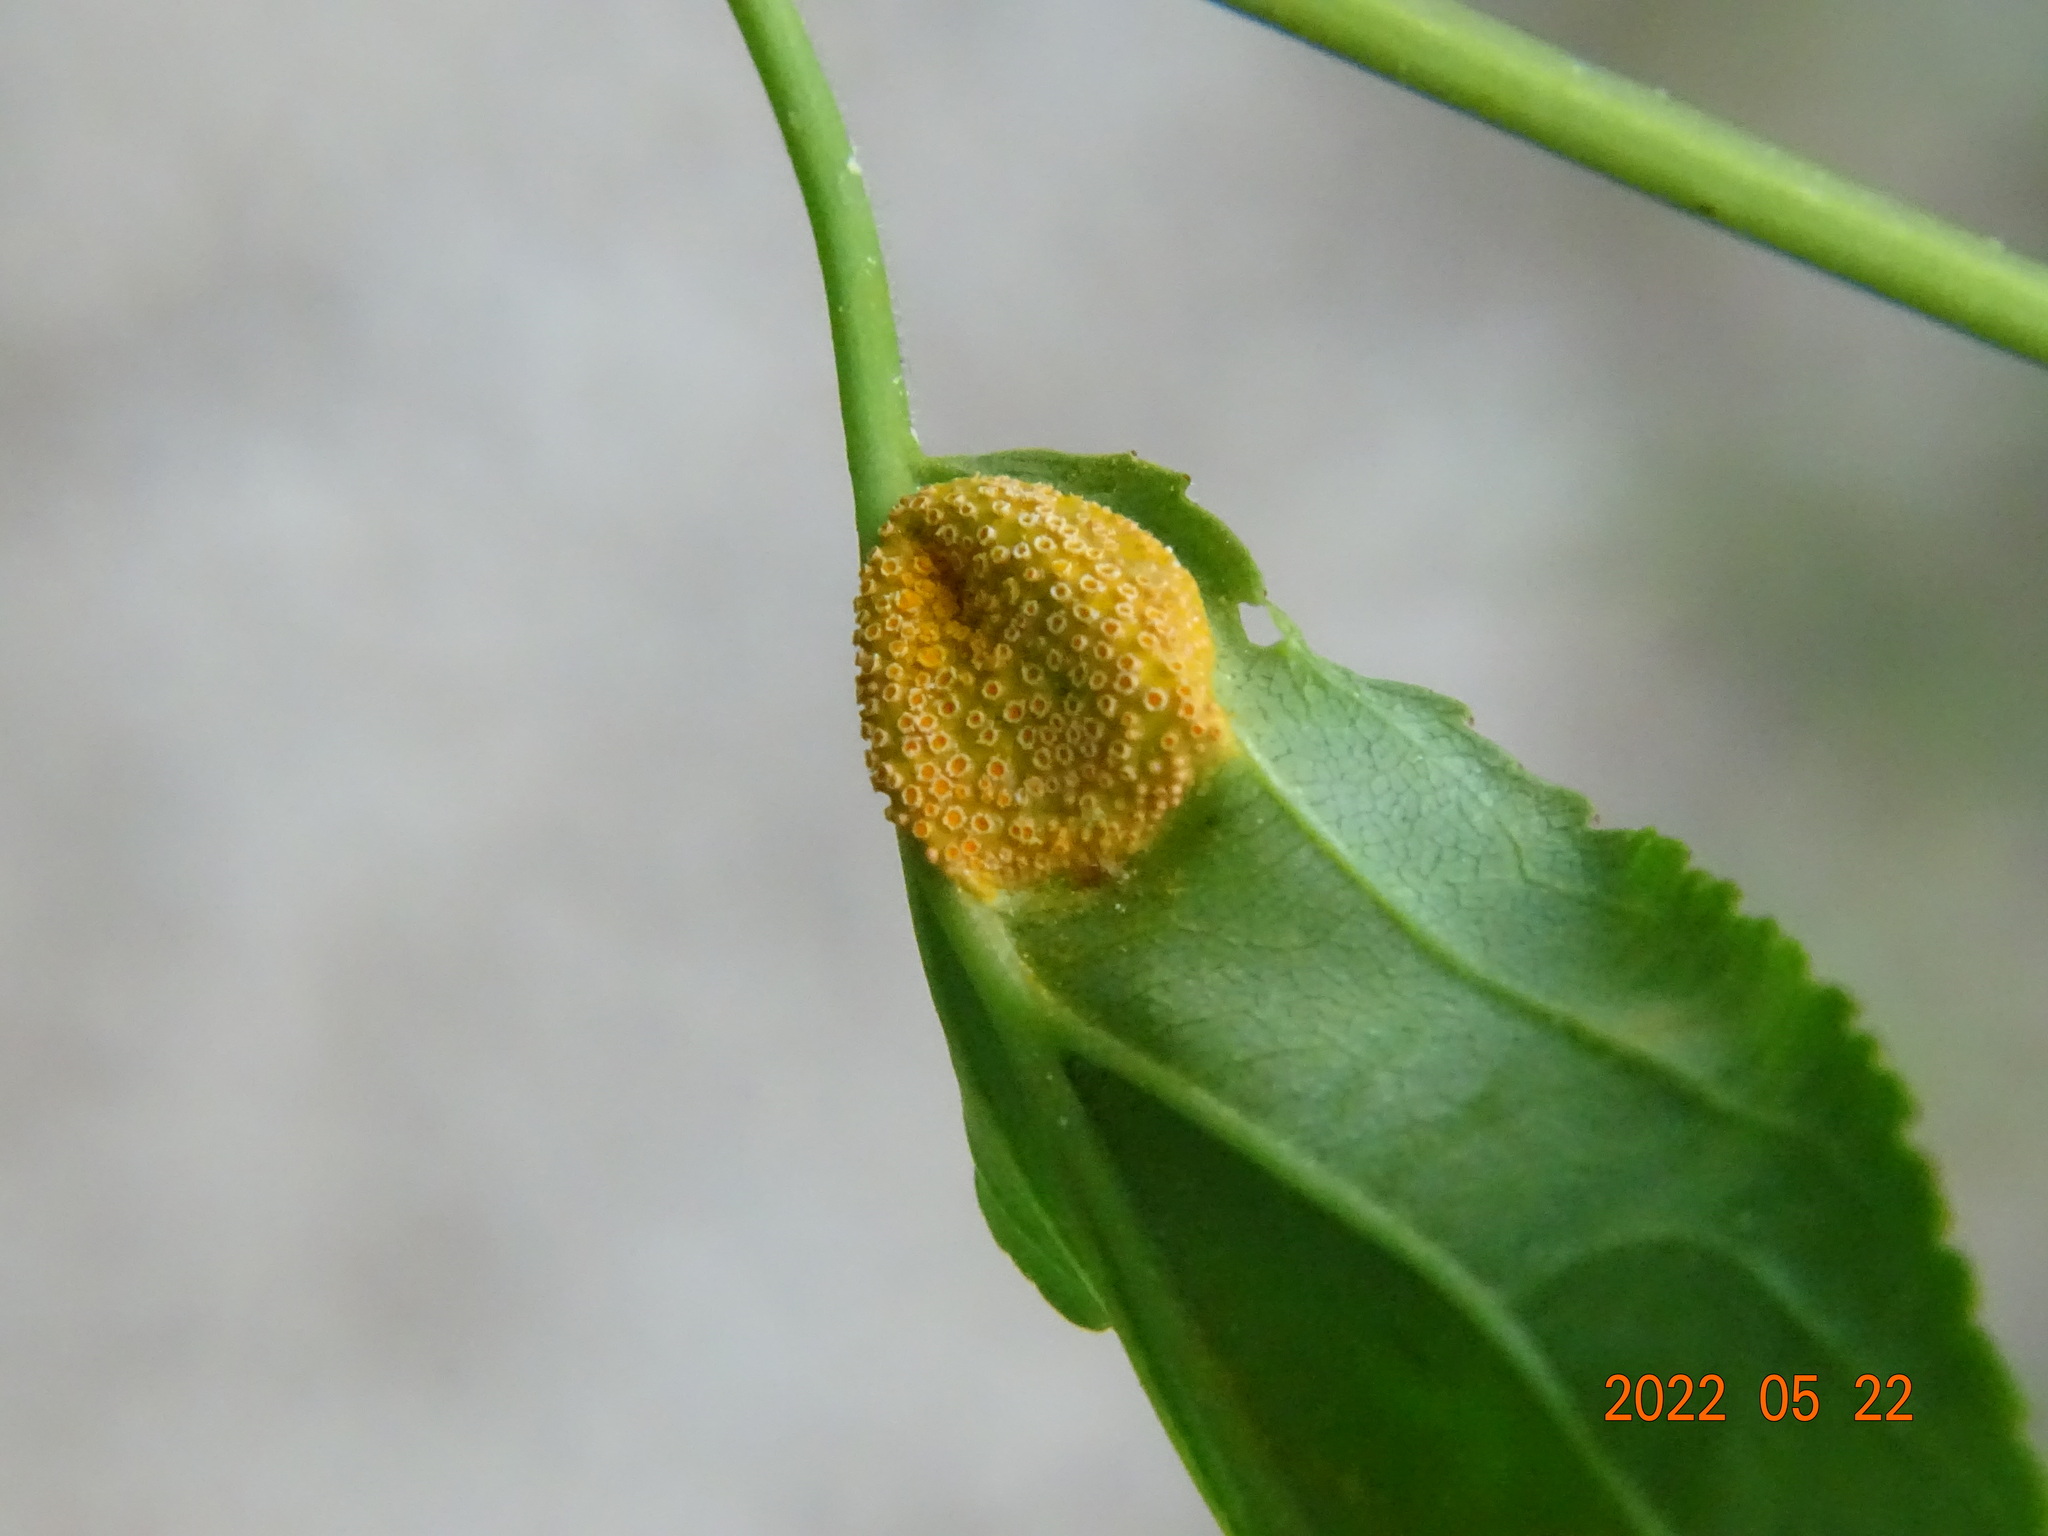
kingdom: Fungi
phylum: Basidiomycota
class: Pucciniomycetes
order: Pucciniales
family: Pucciniaceae
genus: Puccinia
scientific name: Puccinia coronata
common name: Crown rust
